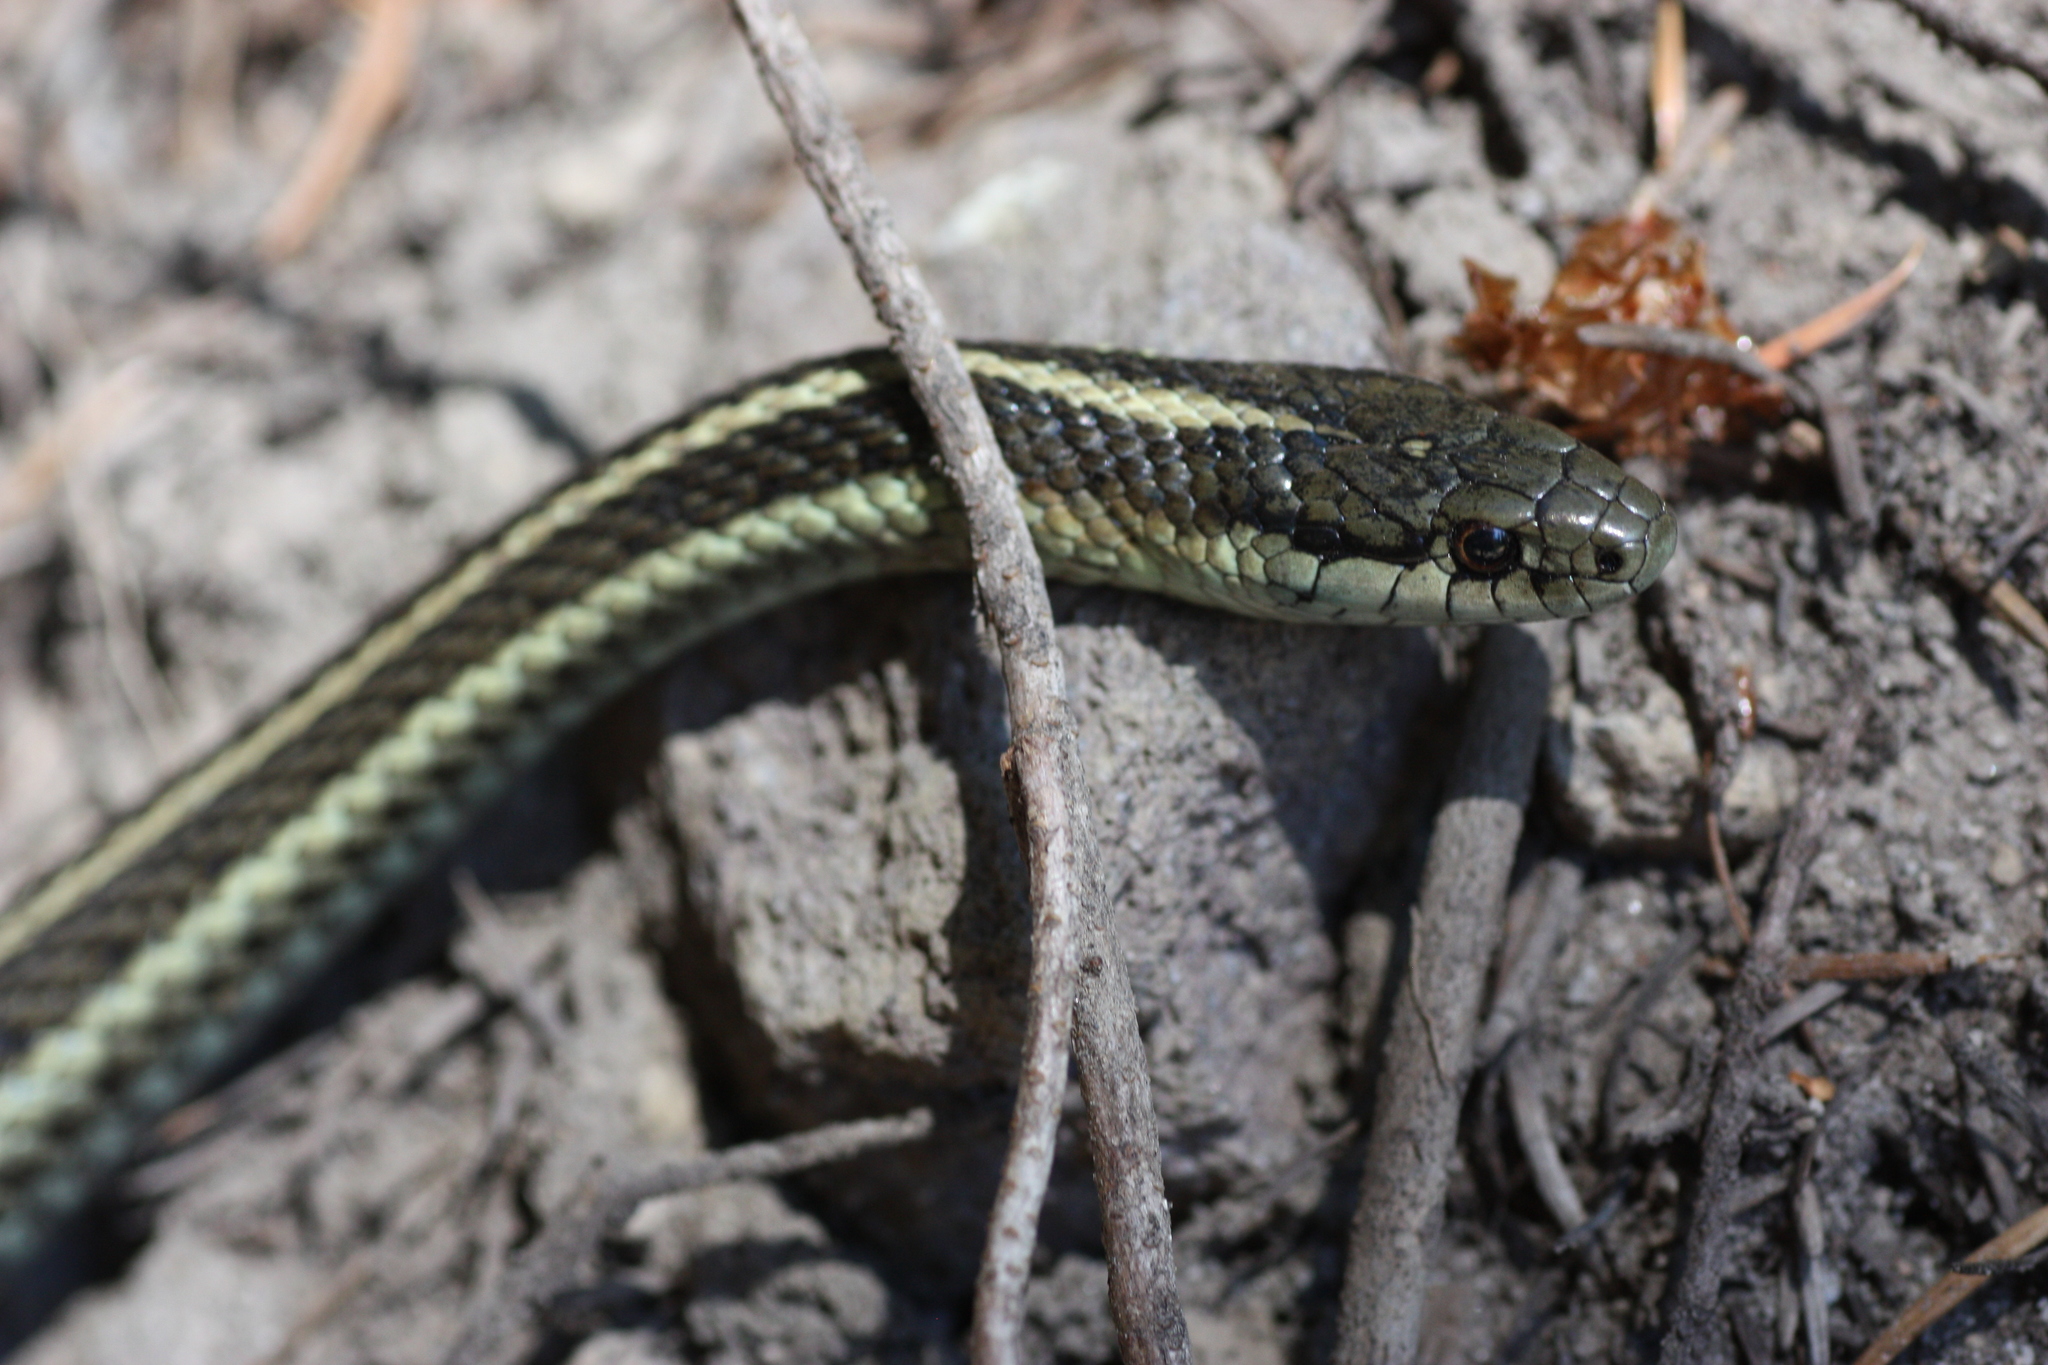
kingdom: Animalia
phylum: Chordata
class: Squamata
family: Colubridae
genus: Thamnophis
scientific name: Thamnophis ordinoides
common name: Northwestern garter snake
